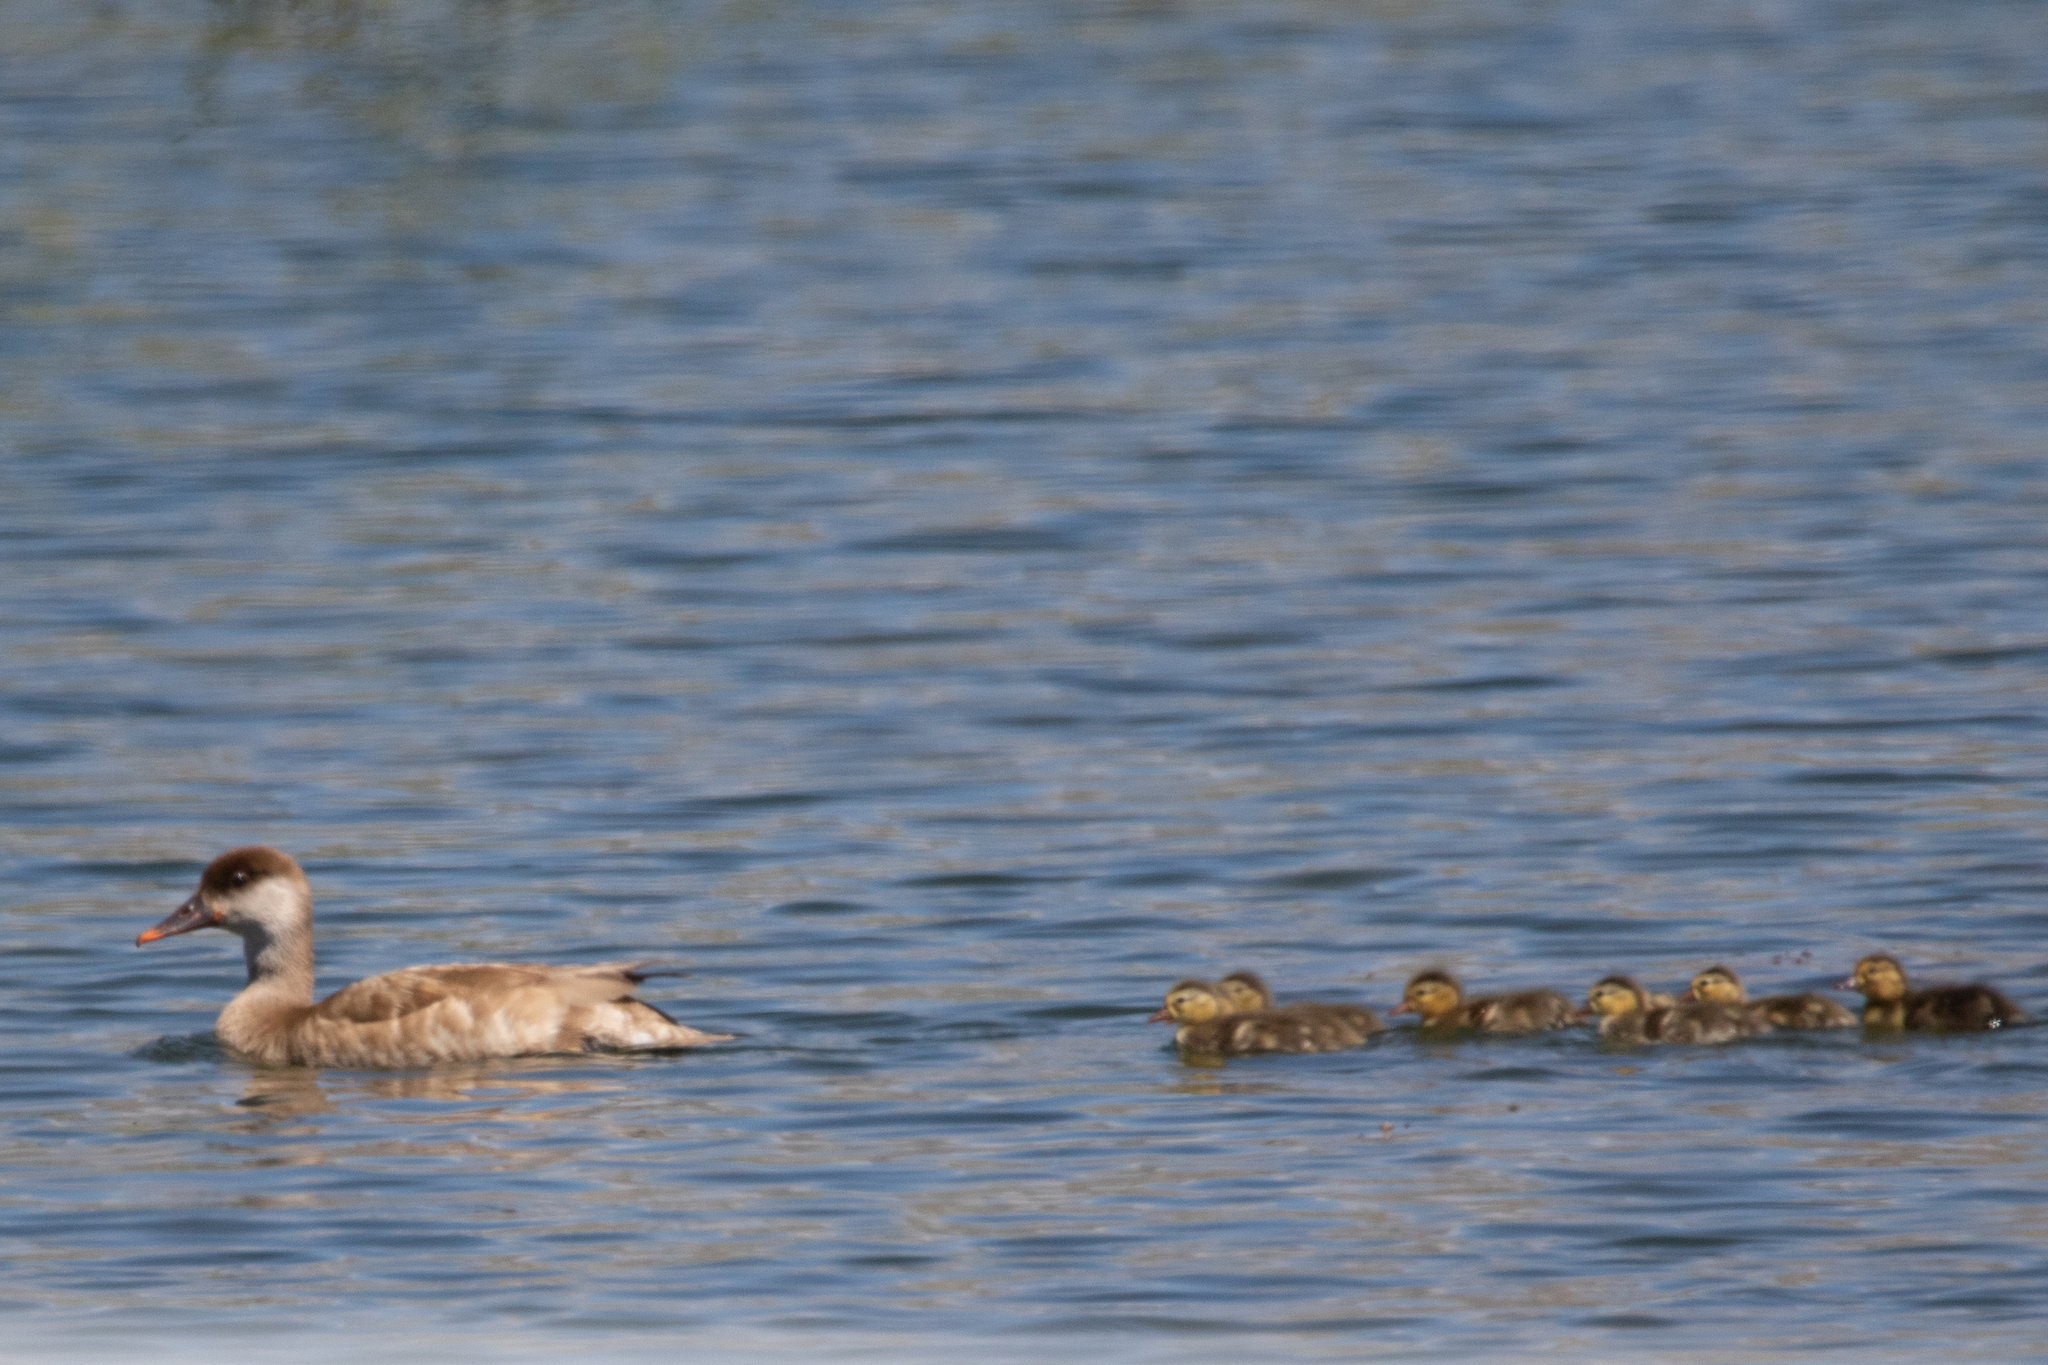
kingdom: Animalia
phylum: Chordata
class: Aves
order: Anseriformes
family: Anatidae
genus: Netta
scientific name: Netta rufina
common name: Red-crested pochard
